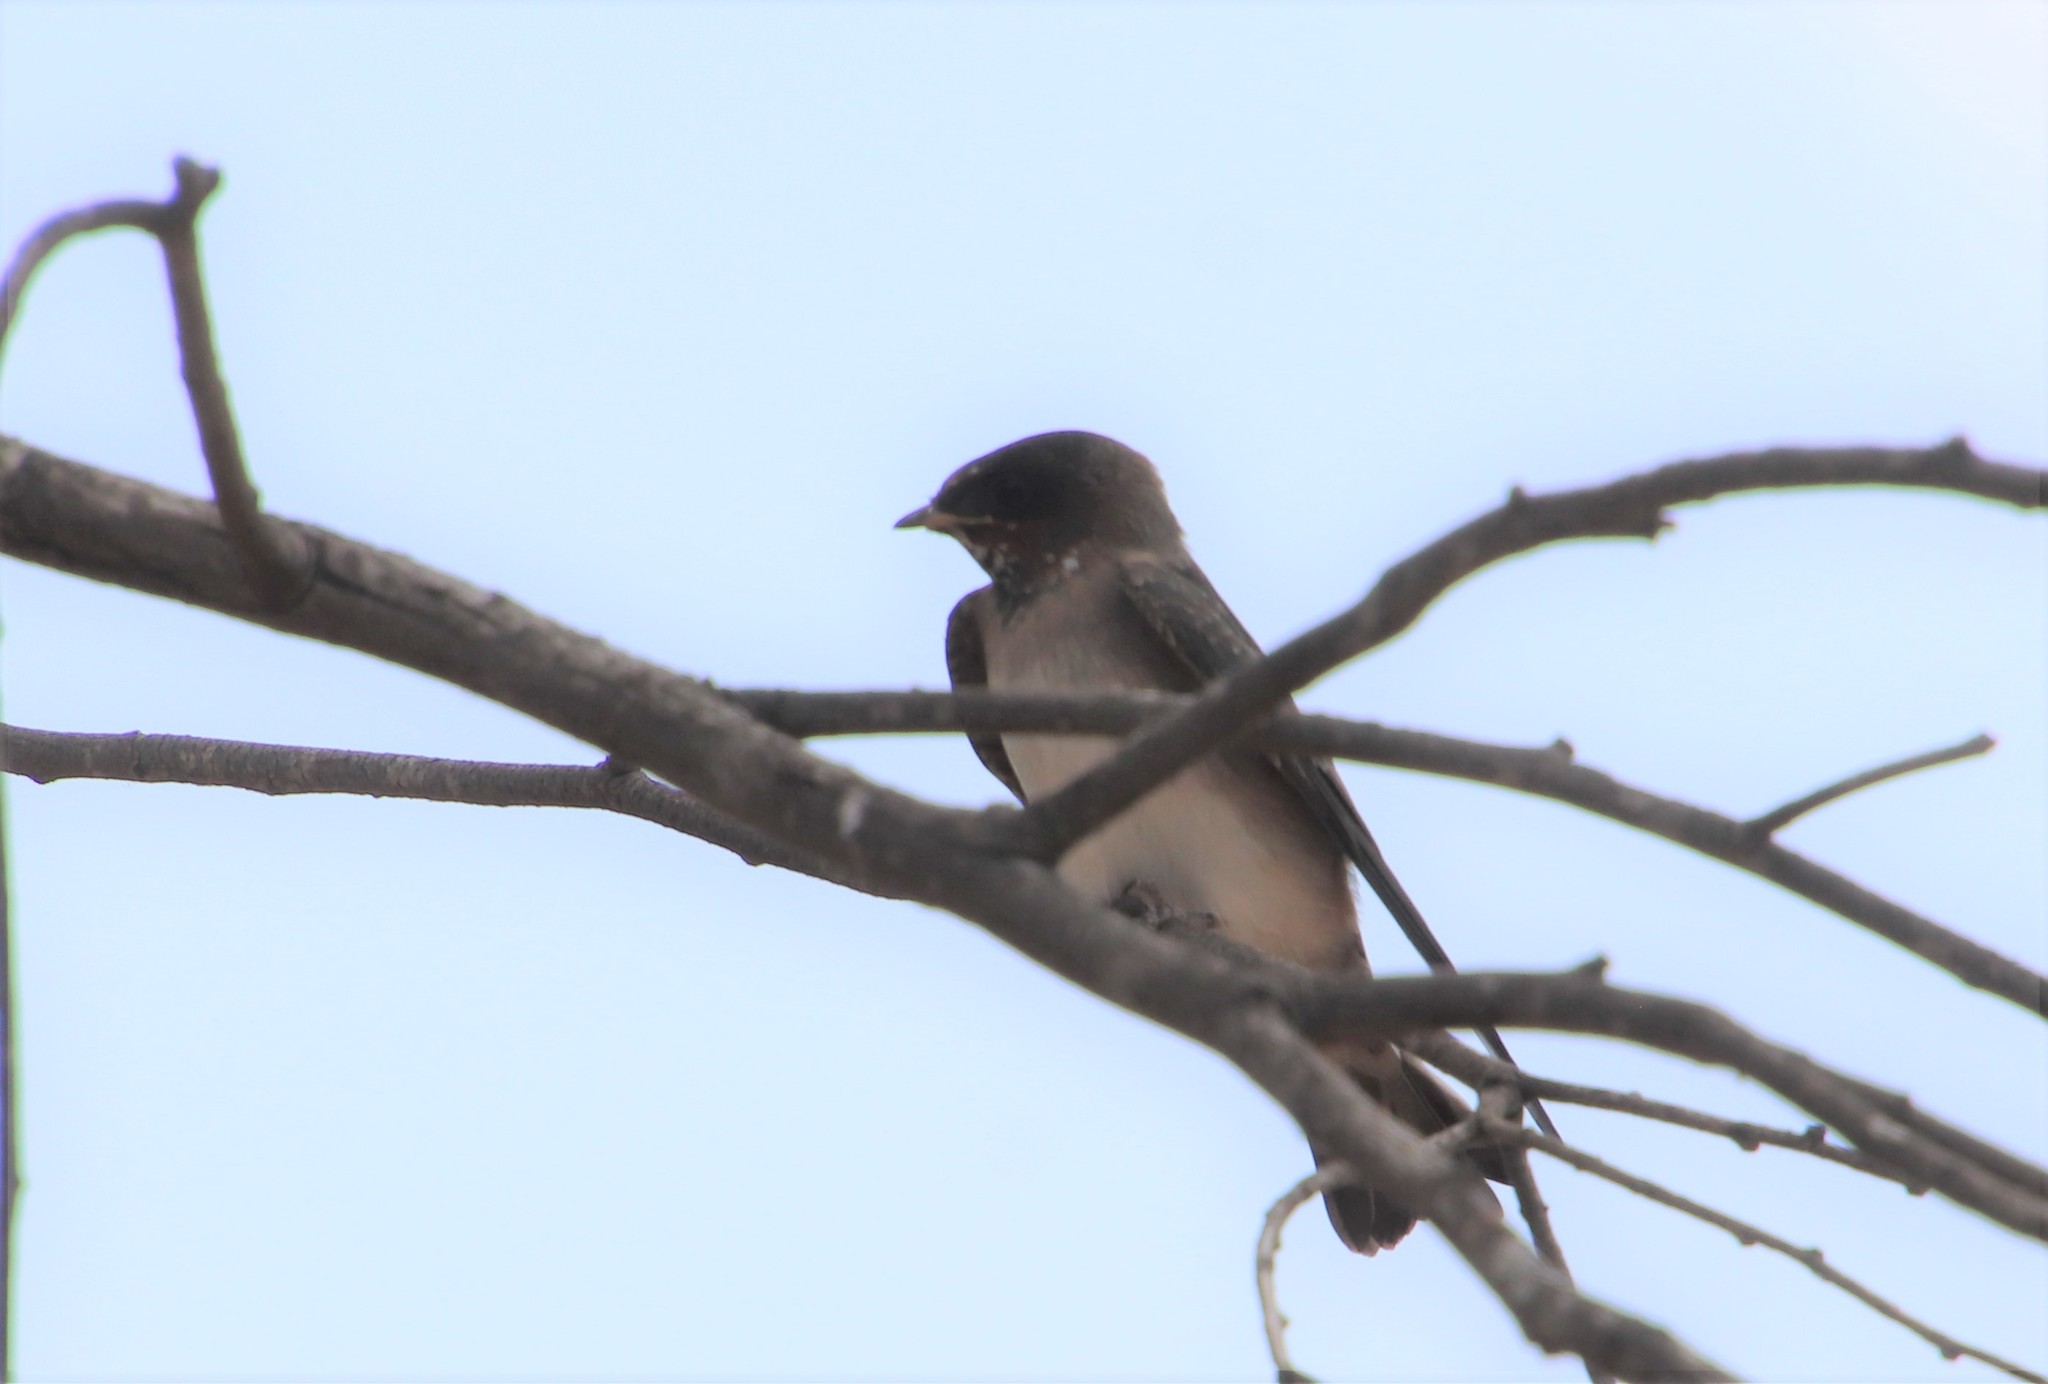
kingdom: Animalia
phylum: Chordata
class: Aves
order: Passeriformes
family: Hirundinidae
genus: Petrochelidon
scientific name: Petrochelidon pyrrhonota
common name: American cliff swallow
